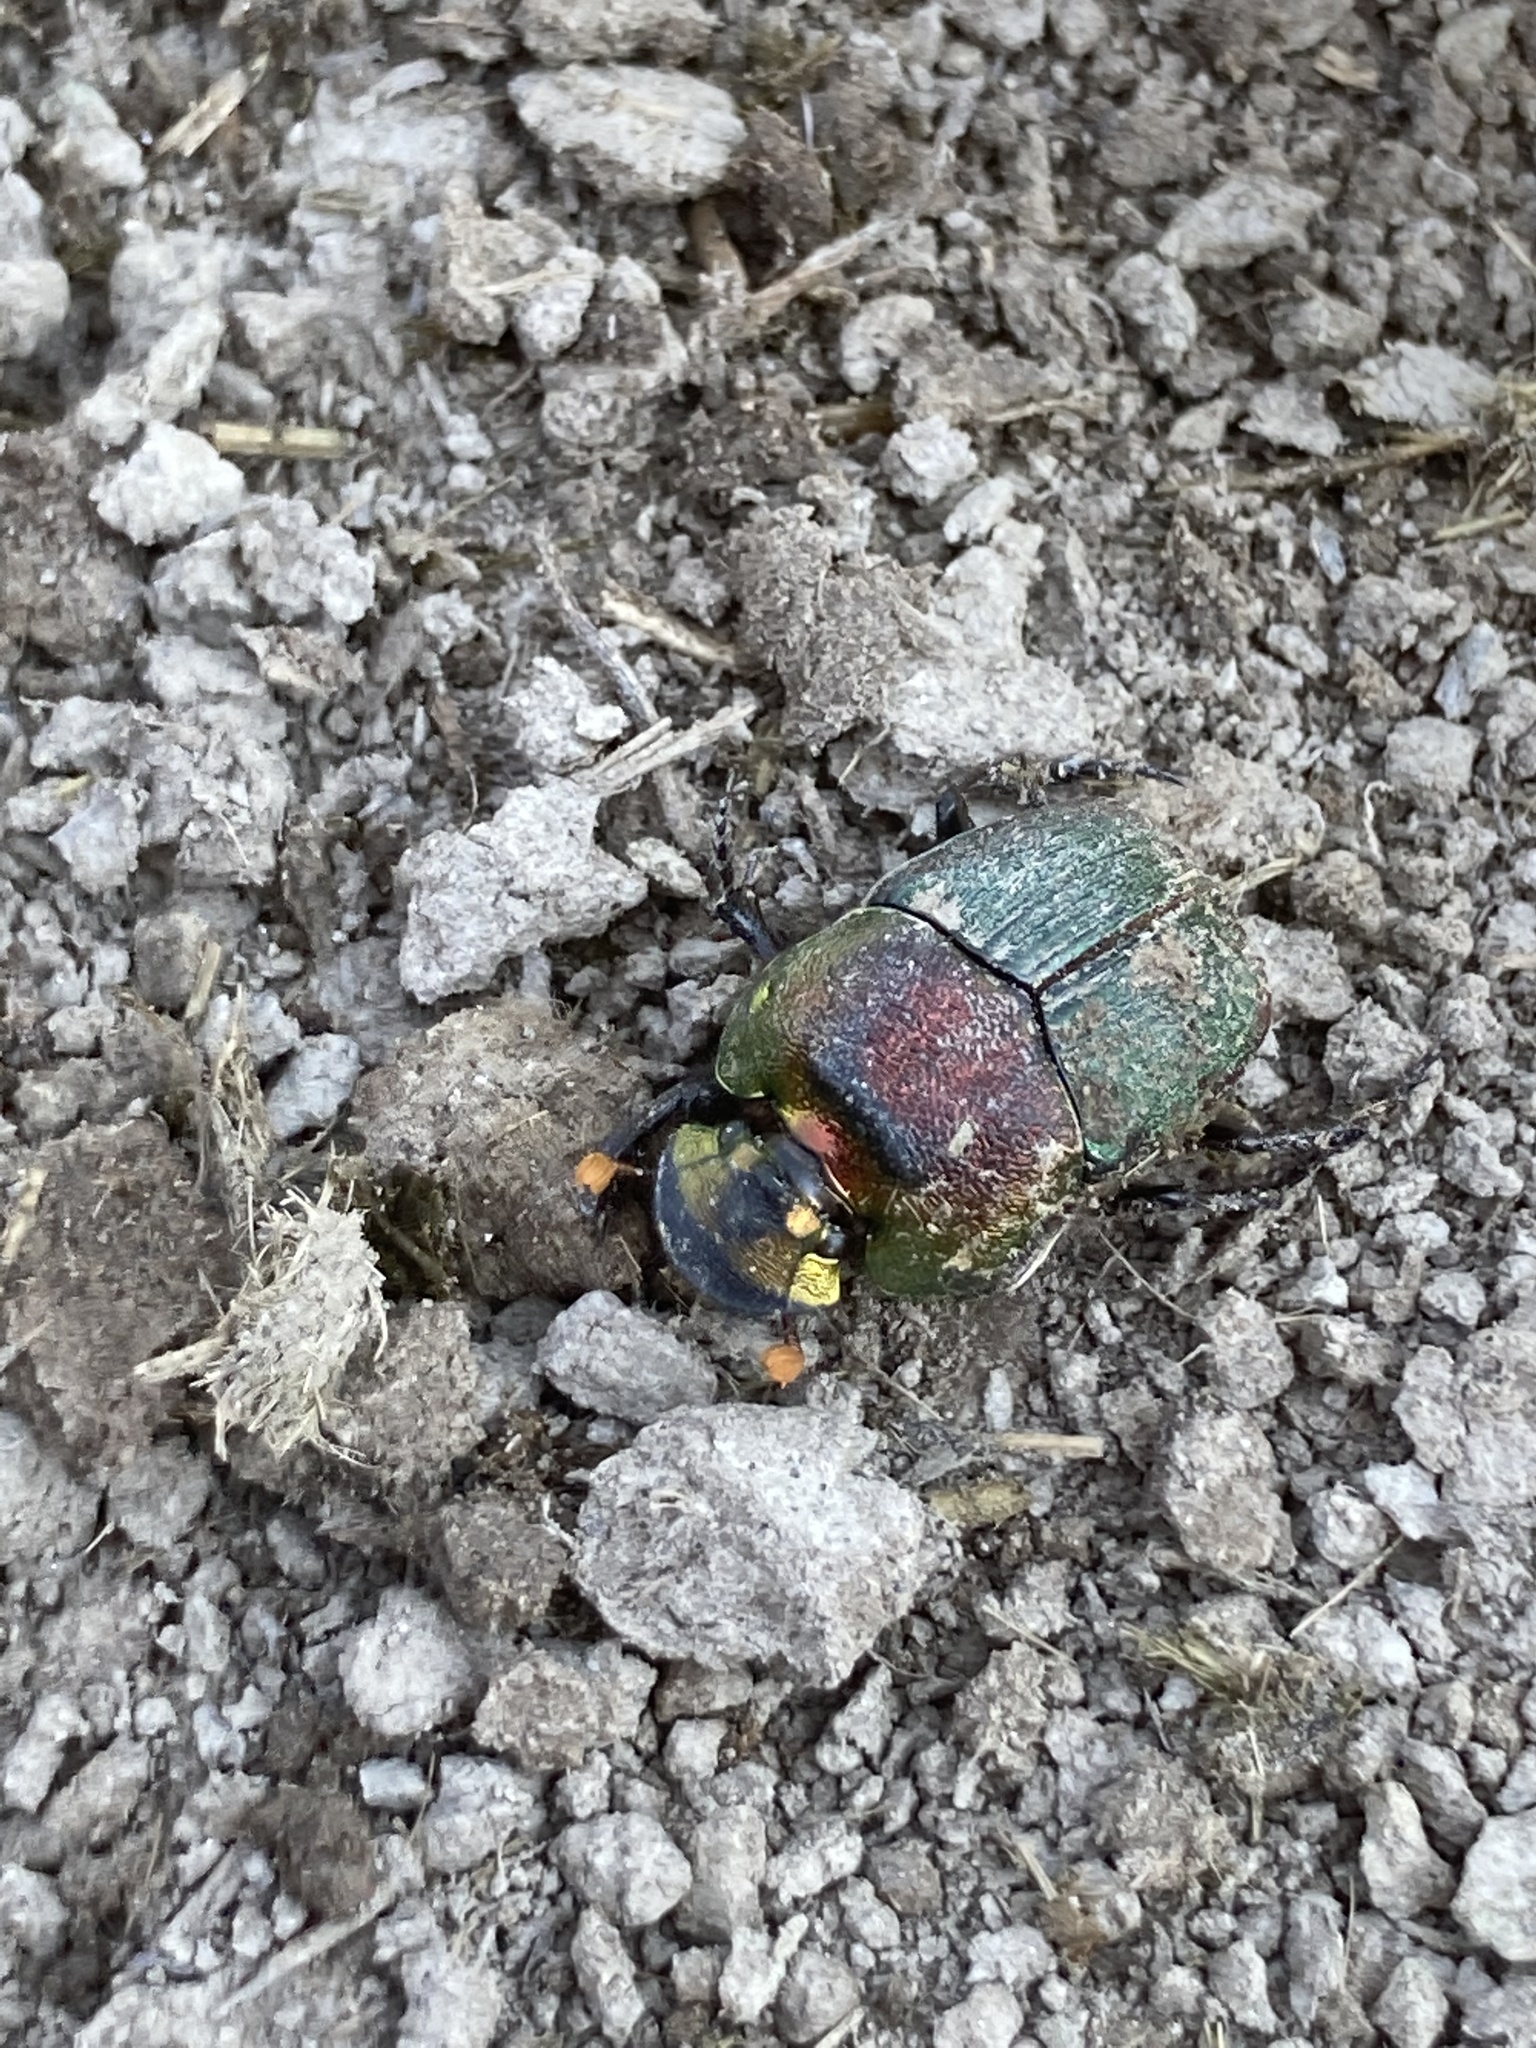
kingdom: Animalia
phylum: Arthropoda
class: Insecta
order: Coleoptera
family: Scarabaeidae
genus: Phanaeus
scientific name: Phanaeus vindex
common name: Rainbow scarab
